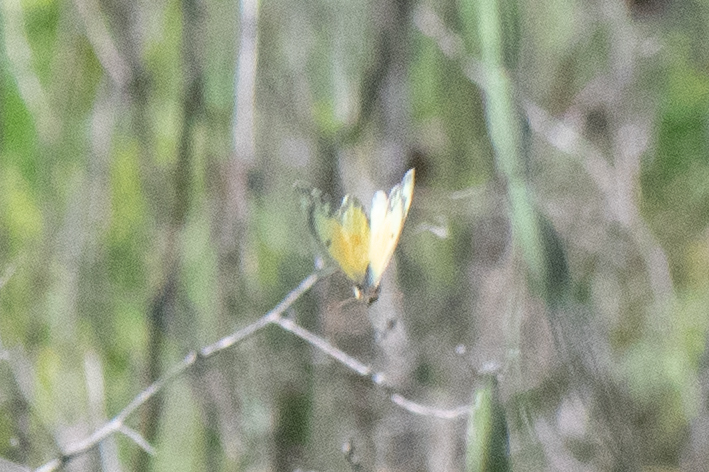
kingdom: Animalia
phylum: Arthropoda
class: Insecta
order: Lepidoptera
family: Pieridae
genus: Colias
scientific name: Colias eurytheme
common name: Alfalfa butterfly
